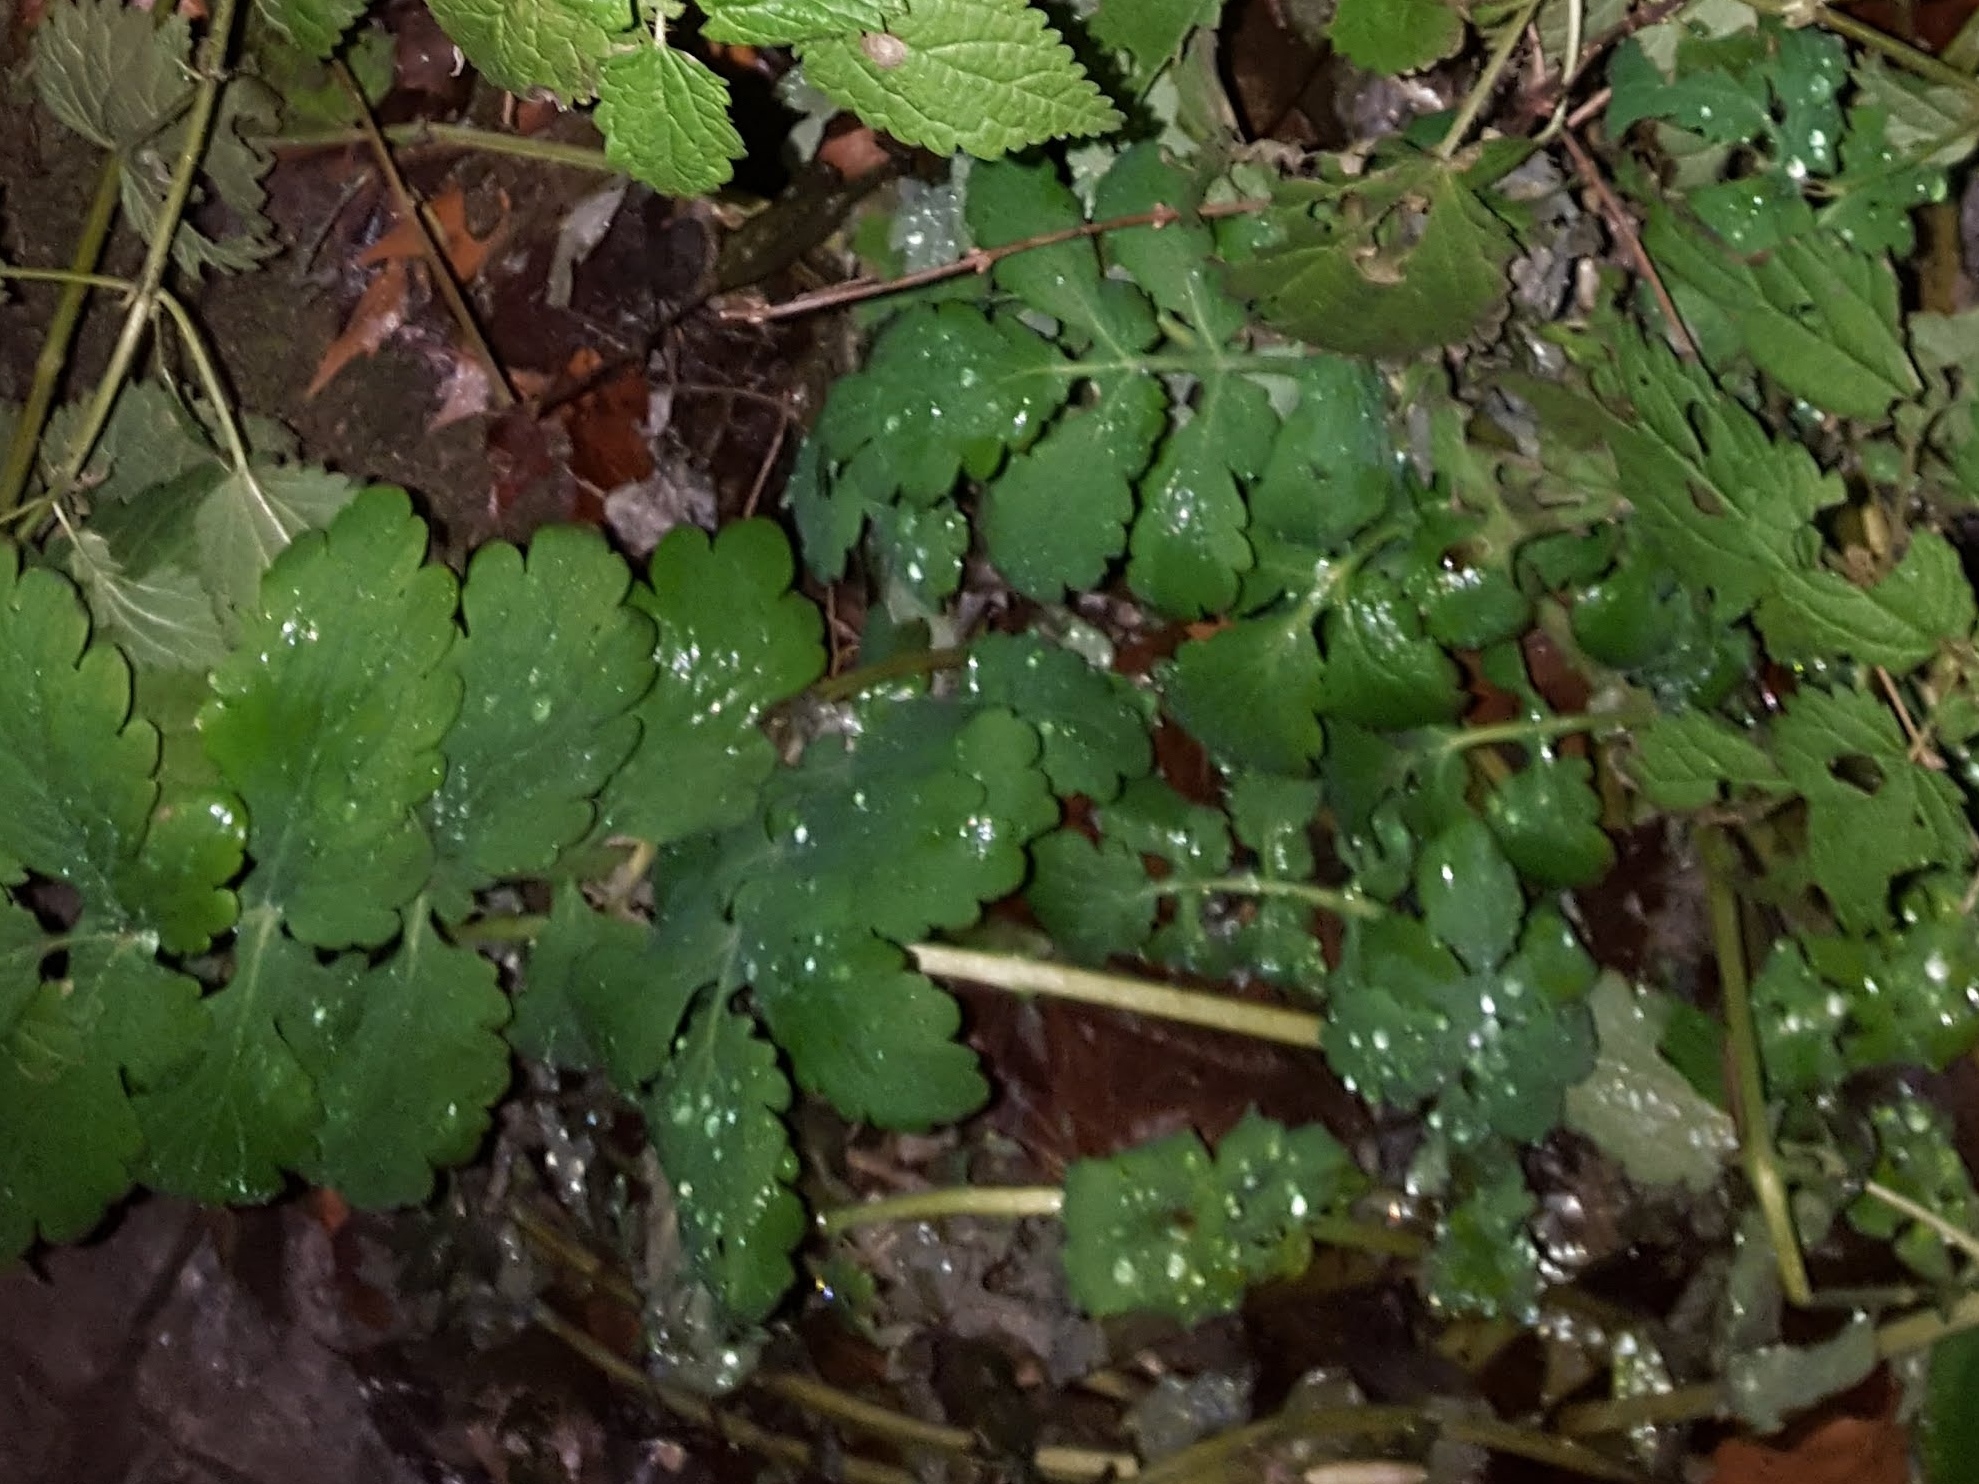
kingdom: Plantae
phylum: Tracheophyta
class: Magnoliopsida
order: Ranunculales
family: Papaveraceae
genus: Chelidonium
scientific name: Chelidonium majus
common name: Greater celandine
